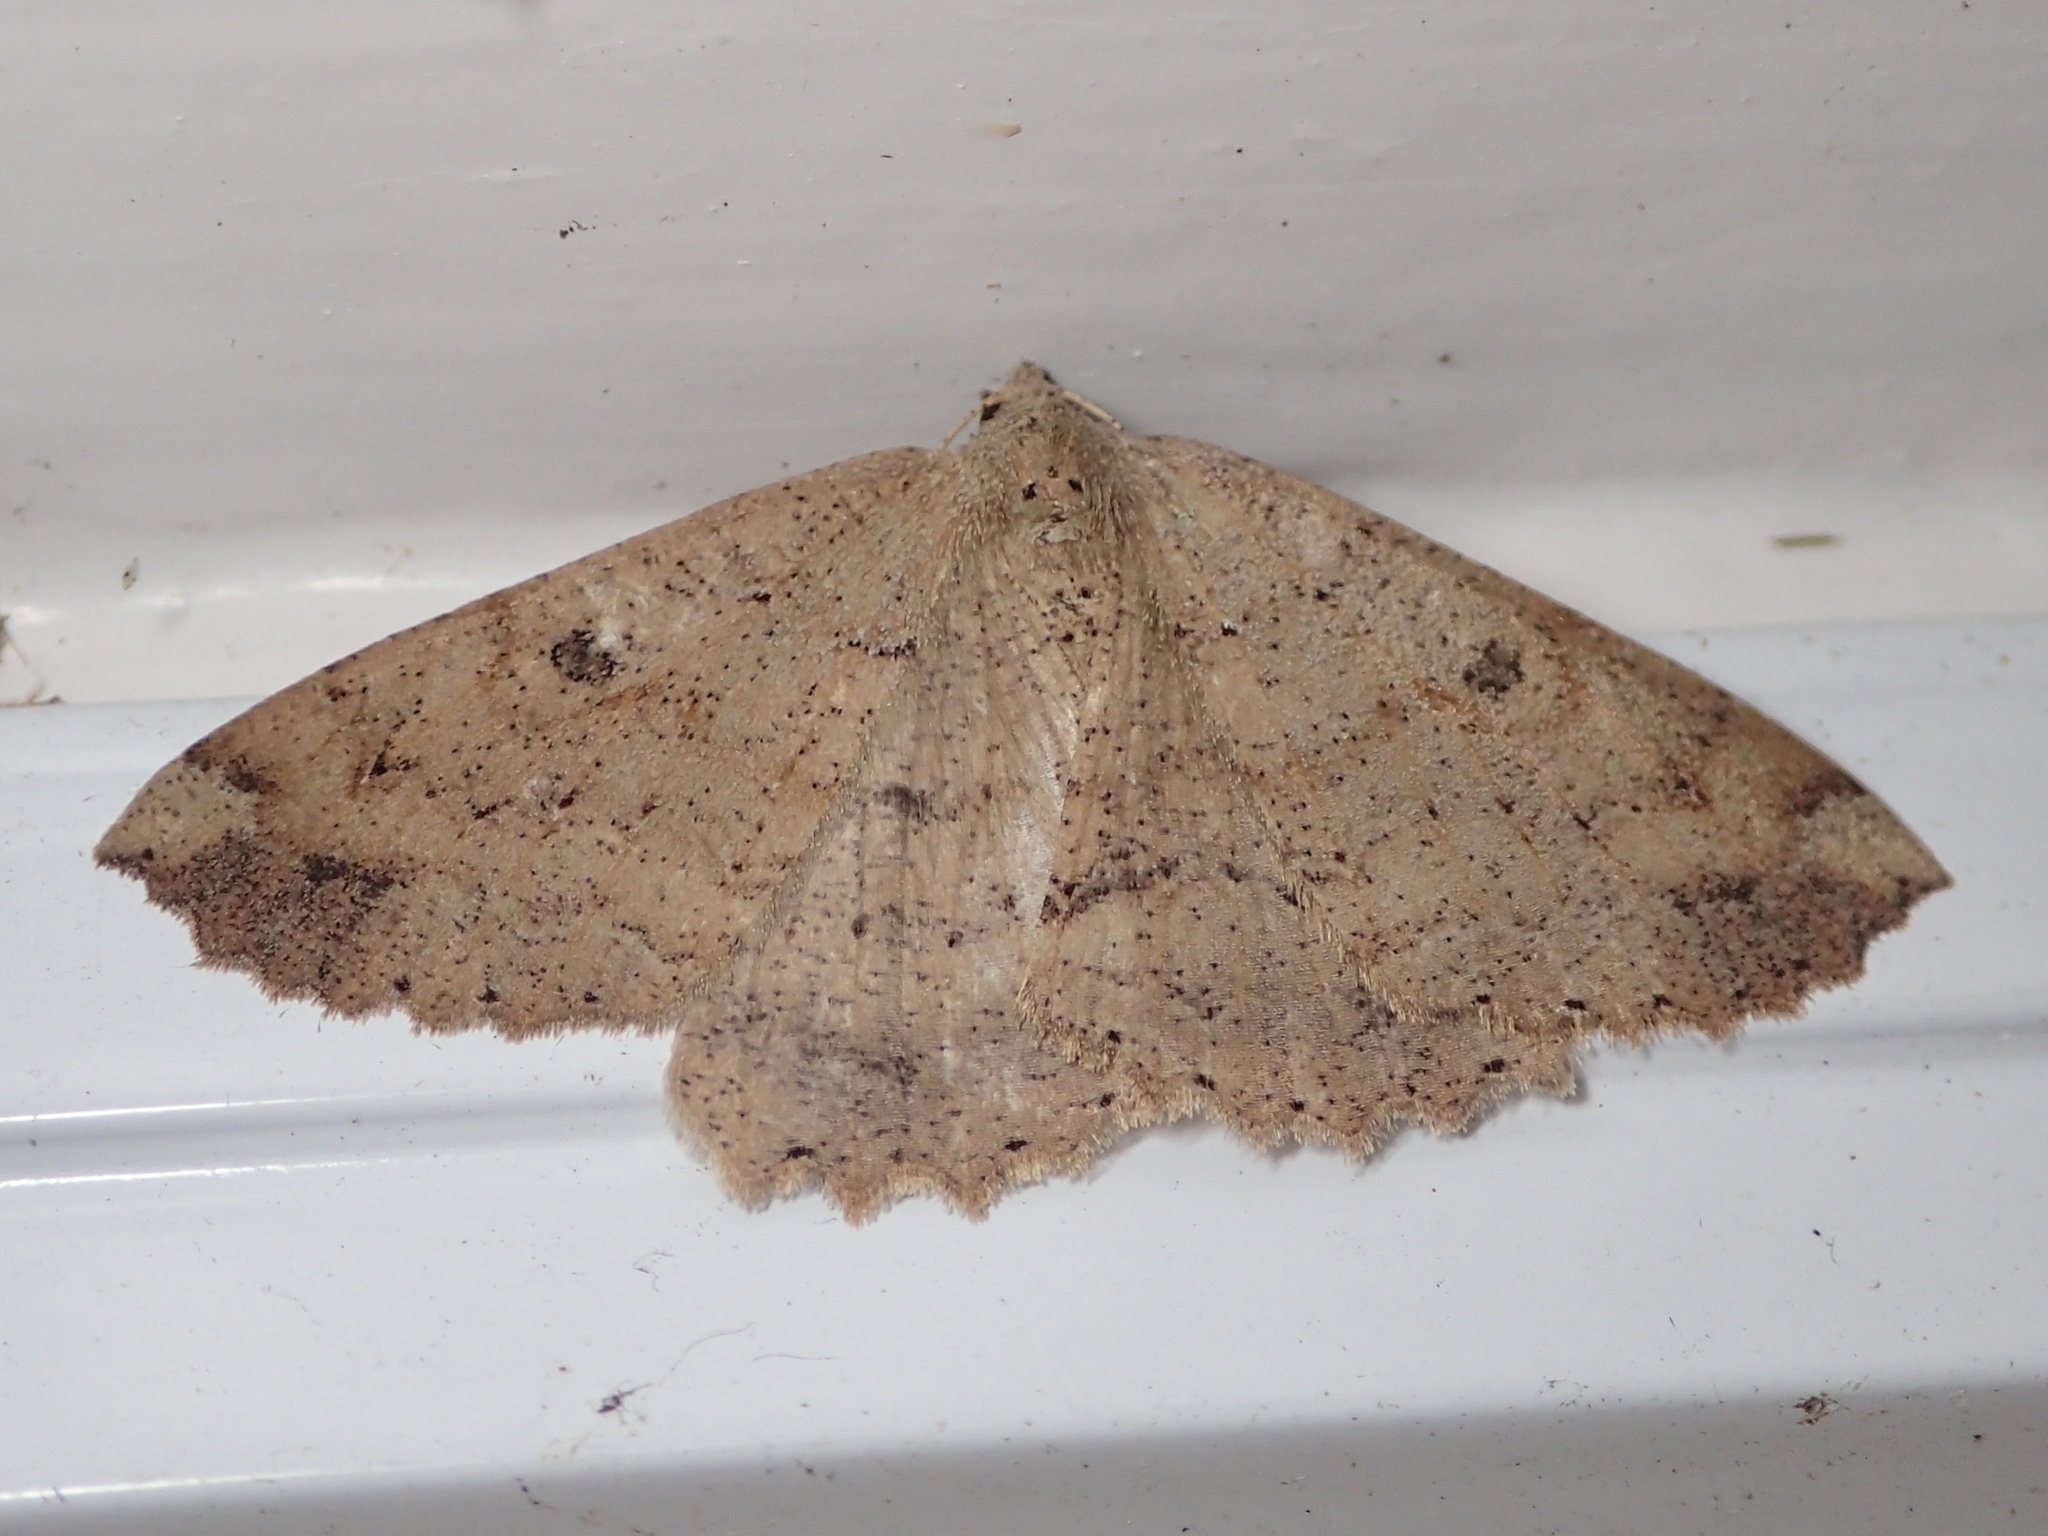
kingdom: Animalia
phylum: Arthropoda
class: Insecta
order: Lepidoptera
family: Geometridae
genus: Cleora
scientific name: Cleora scriptaria
